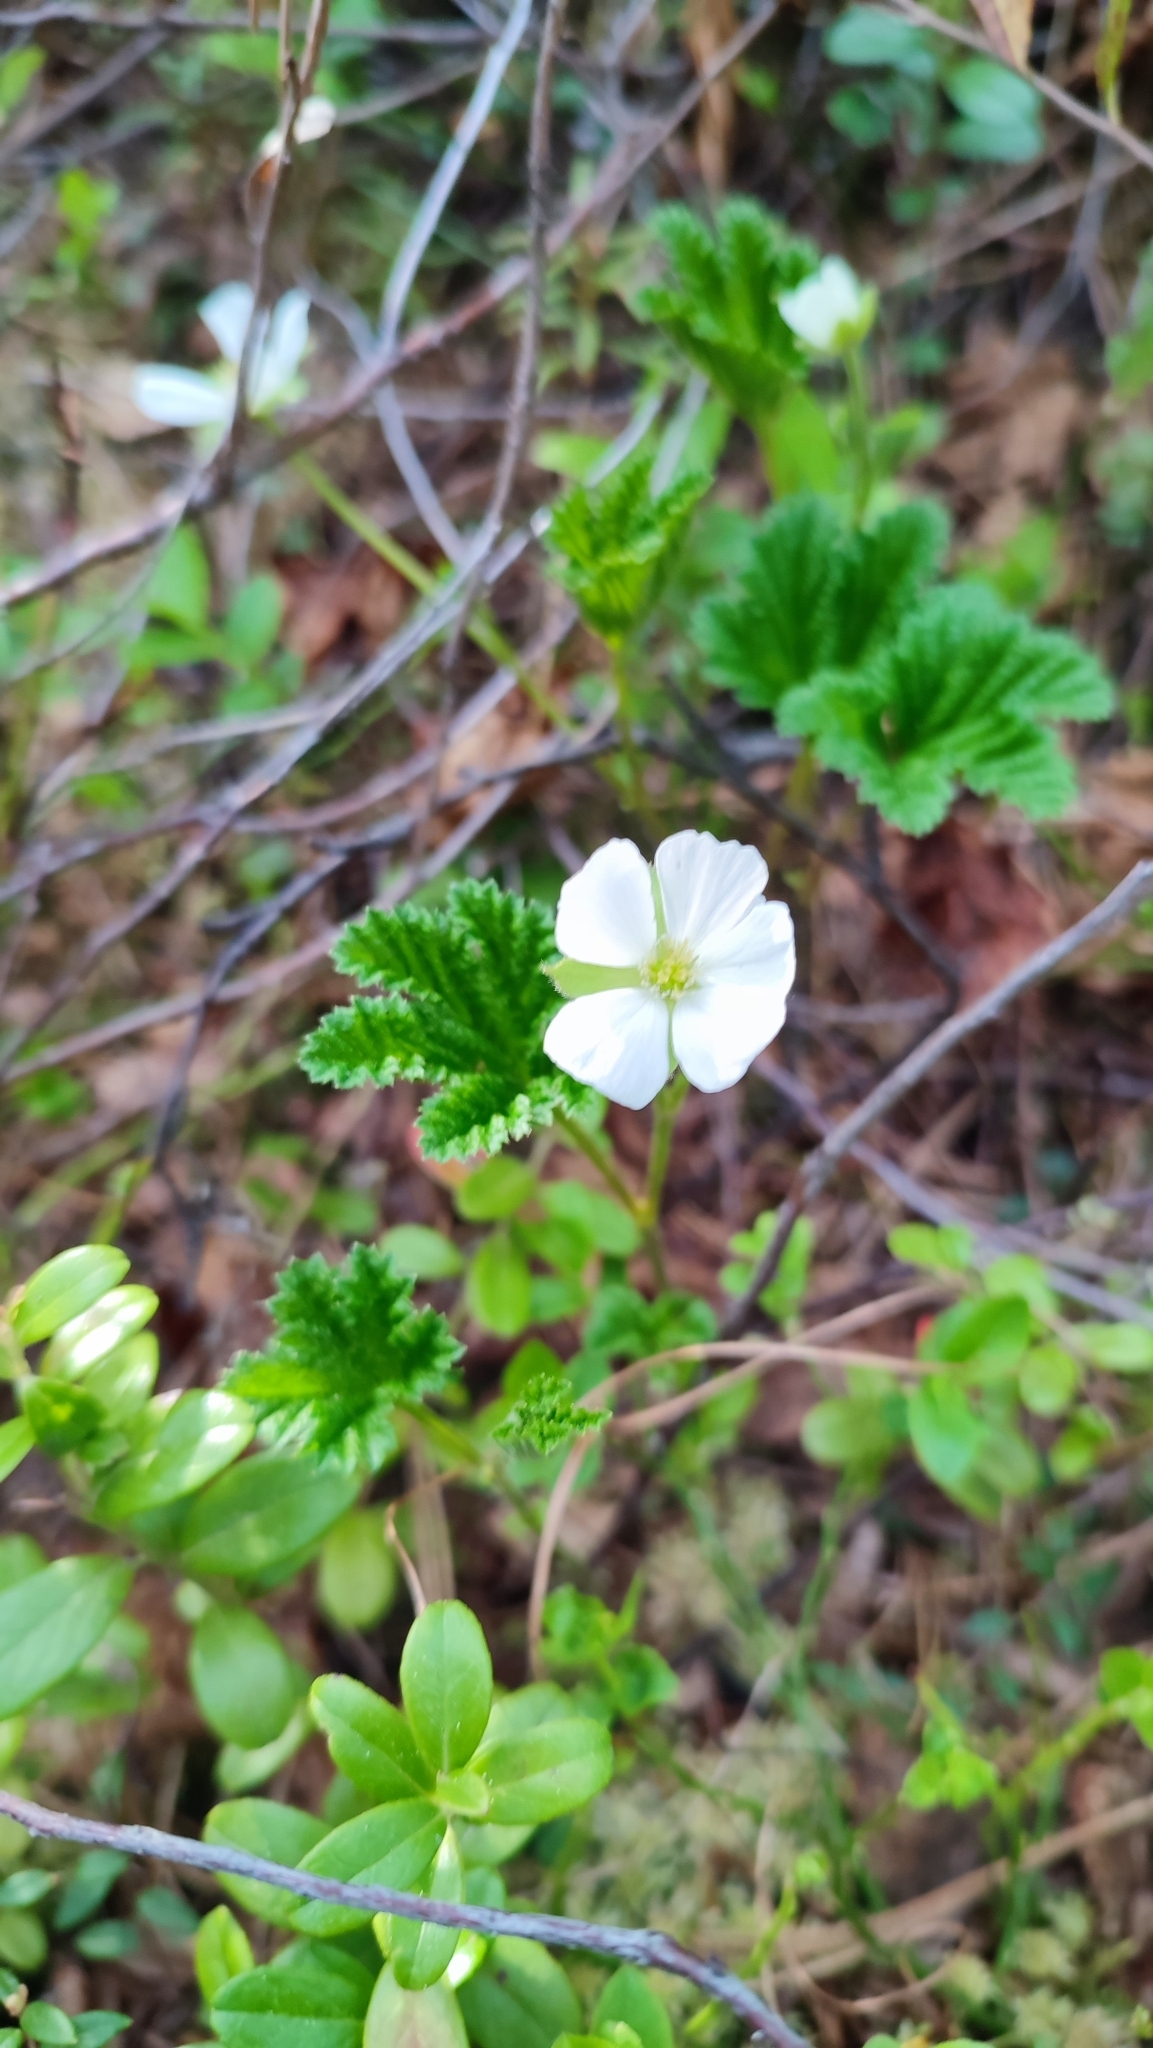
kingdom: Plantae
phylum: Tracheophyta
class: Magnoliopsida
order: Rosales
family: Rosaceae
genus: Rubus
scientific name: Rubus chamaemorus
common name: Cloudberry
